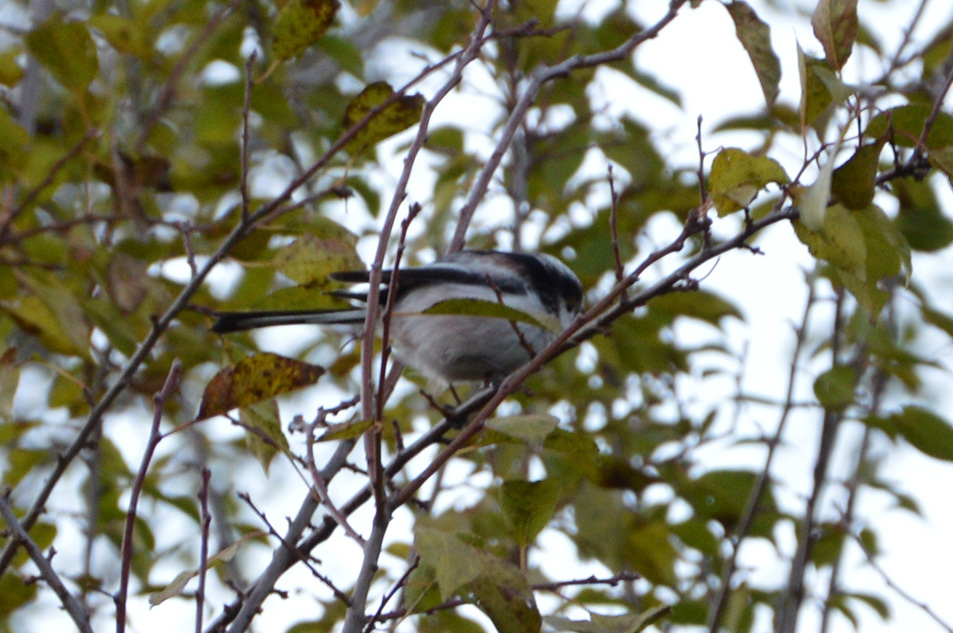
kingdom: Animalia
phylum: Chordata
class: Aves
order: Passeriformes
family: Aegithalidae
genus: Aegithalos
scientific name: Aegithalos caudatus
